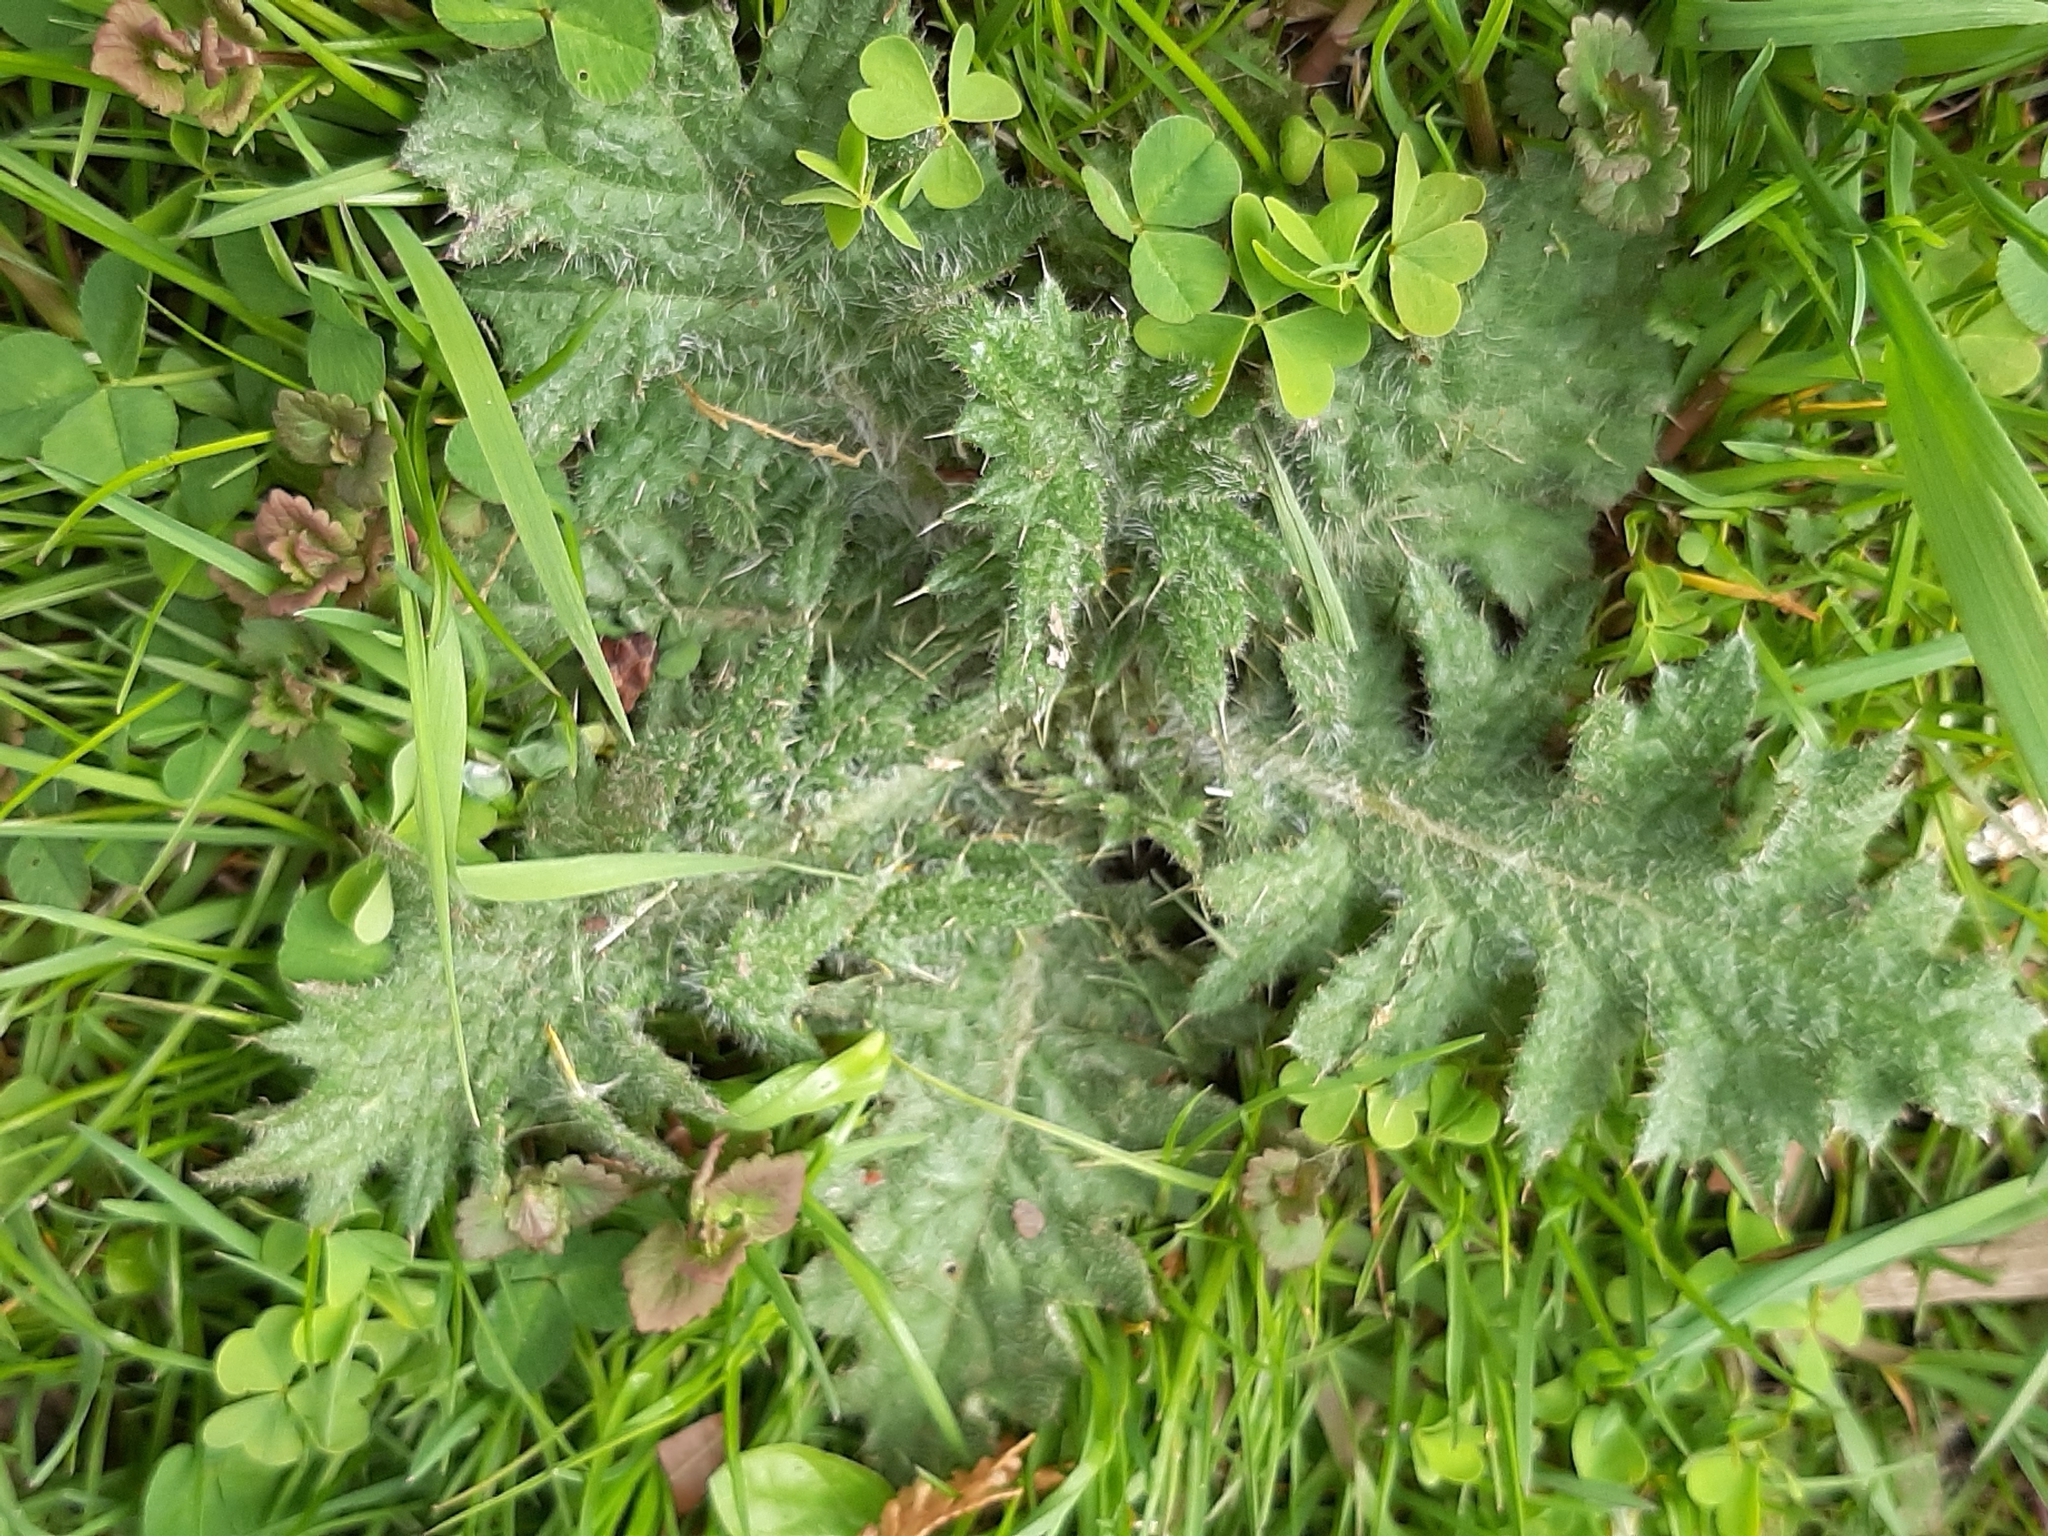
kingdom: Plantae
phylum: Tracheophyta
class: Magnoliopsida
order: Asterales
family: Asteraceae
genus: Cirsium
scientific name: Cirsium vulgare
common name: Bull thistle
